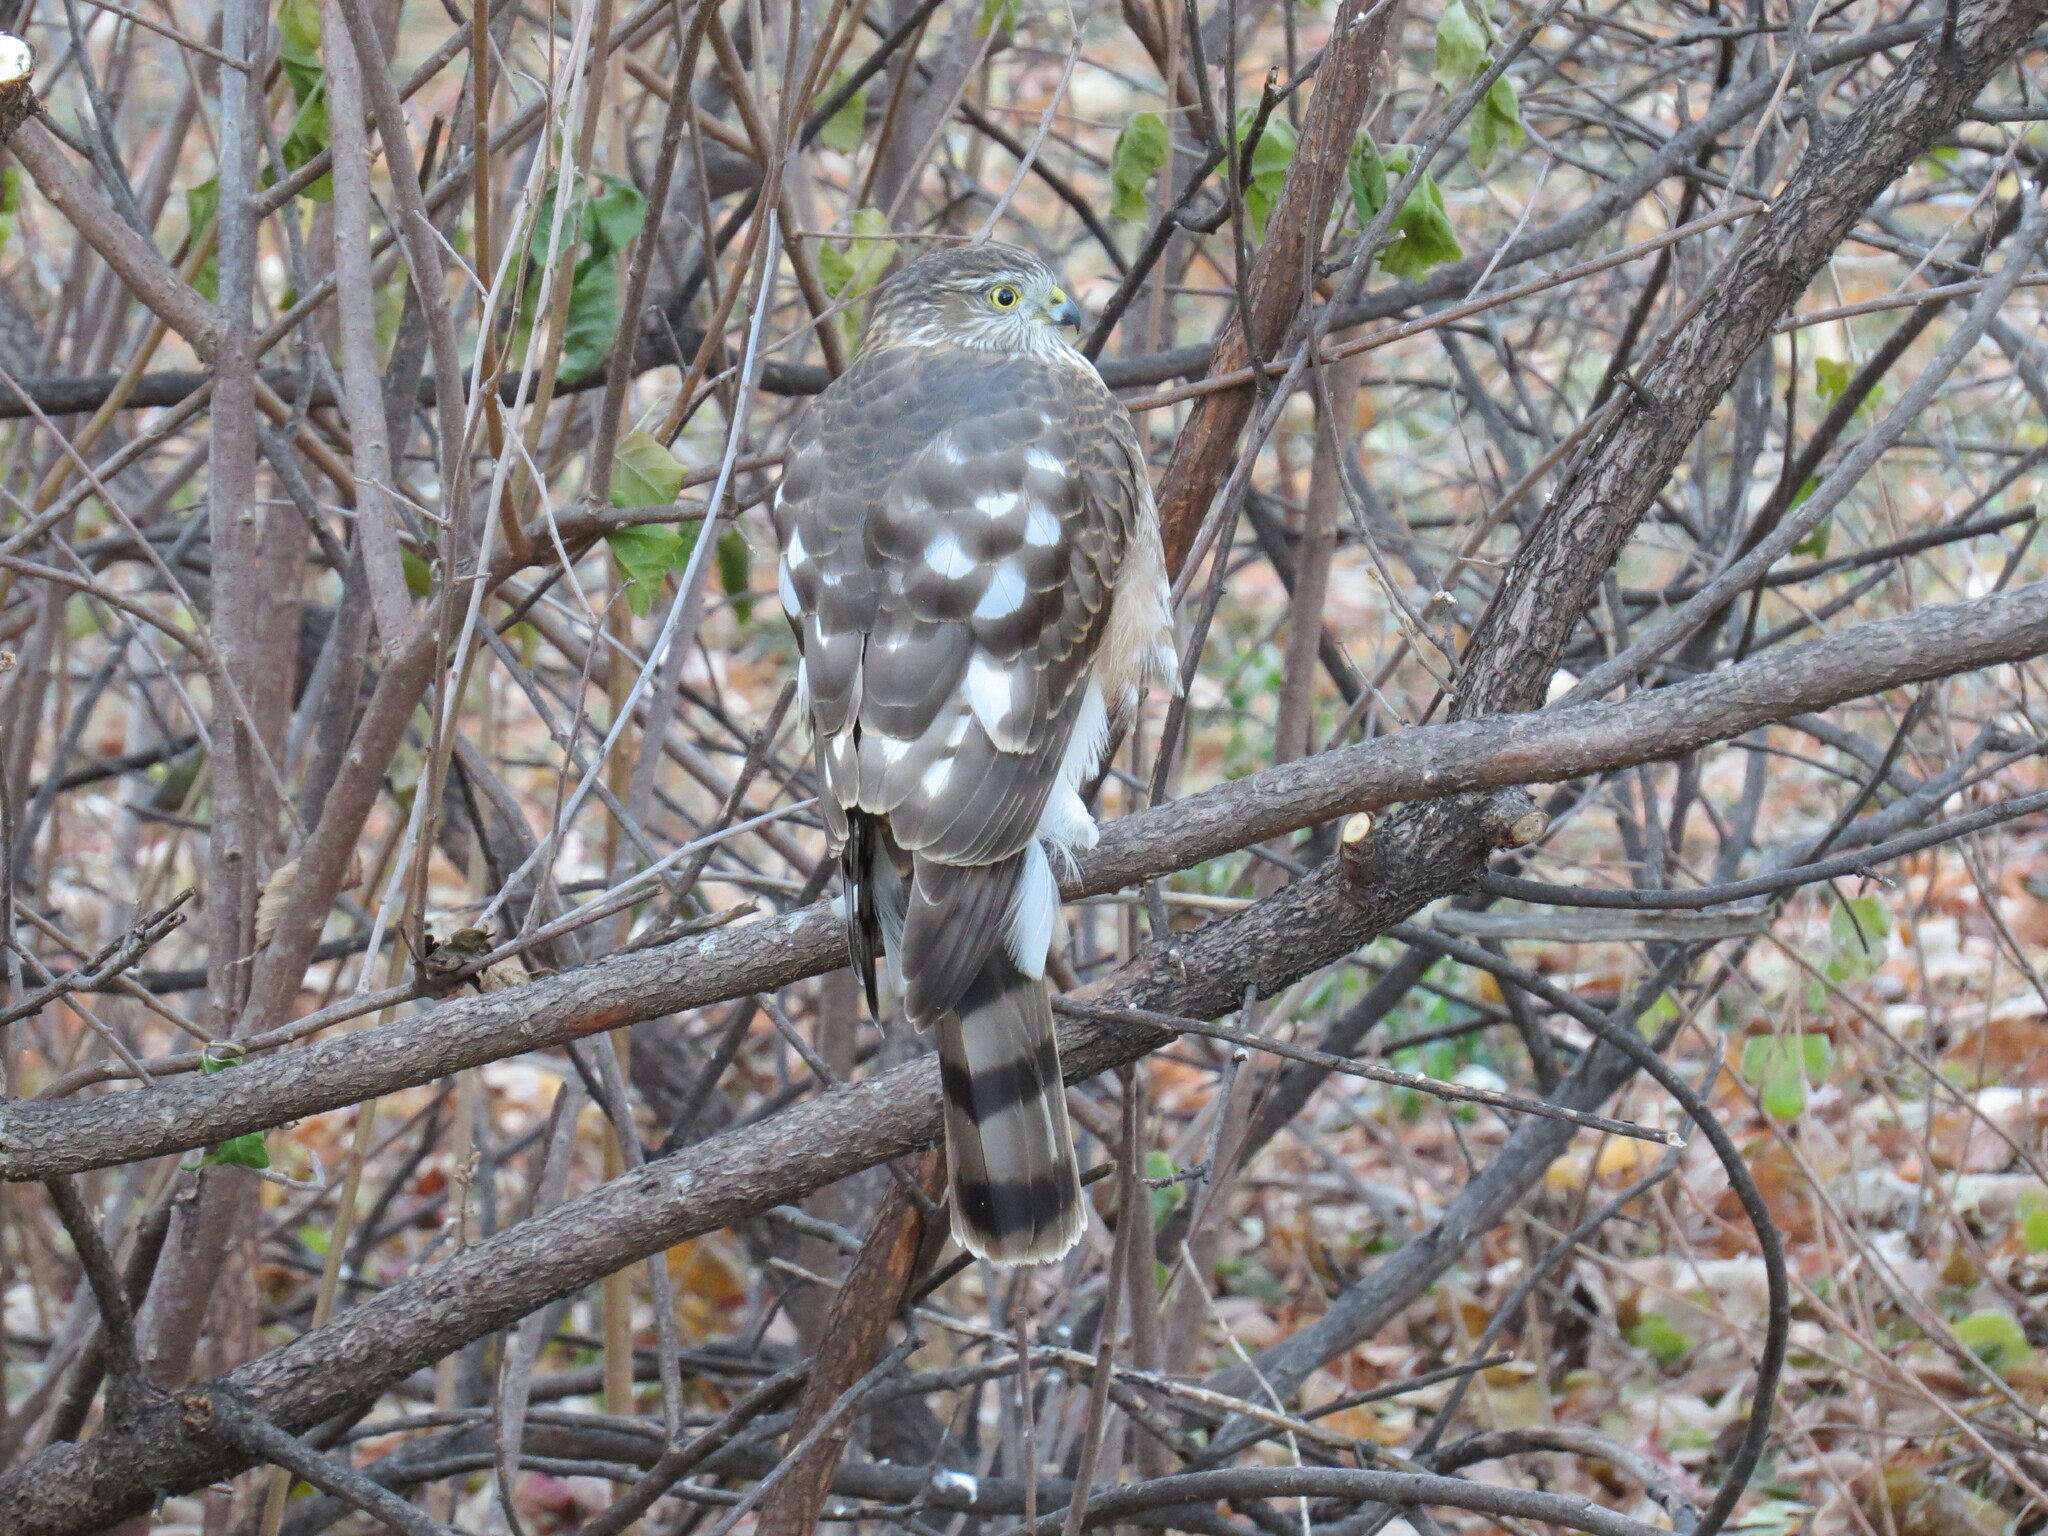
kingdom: Animalia
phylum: Chordata
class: Aves
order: Accipitriformes
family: Accipitridae
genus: Accipiter
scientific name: Accipiter striatus
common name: Sharp-shinned hawk
